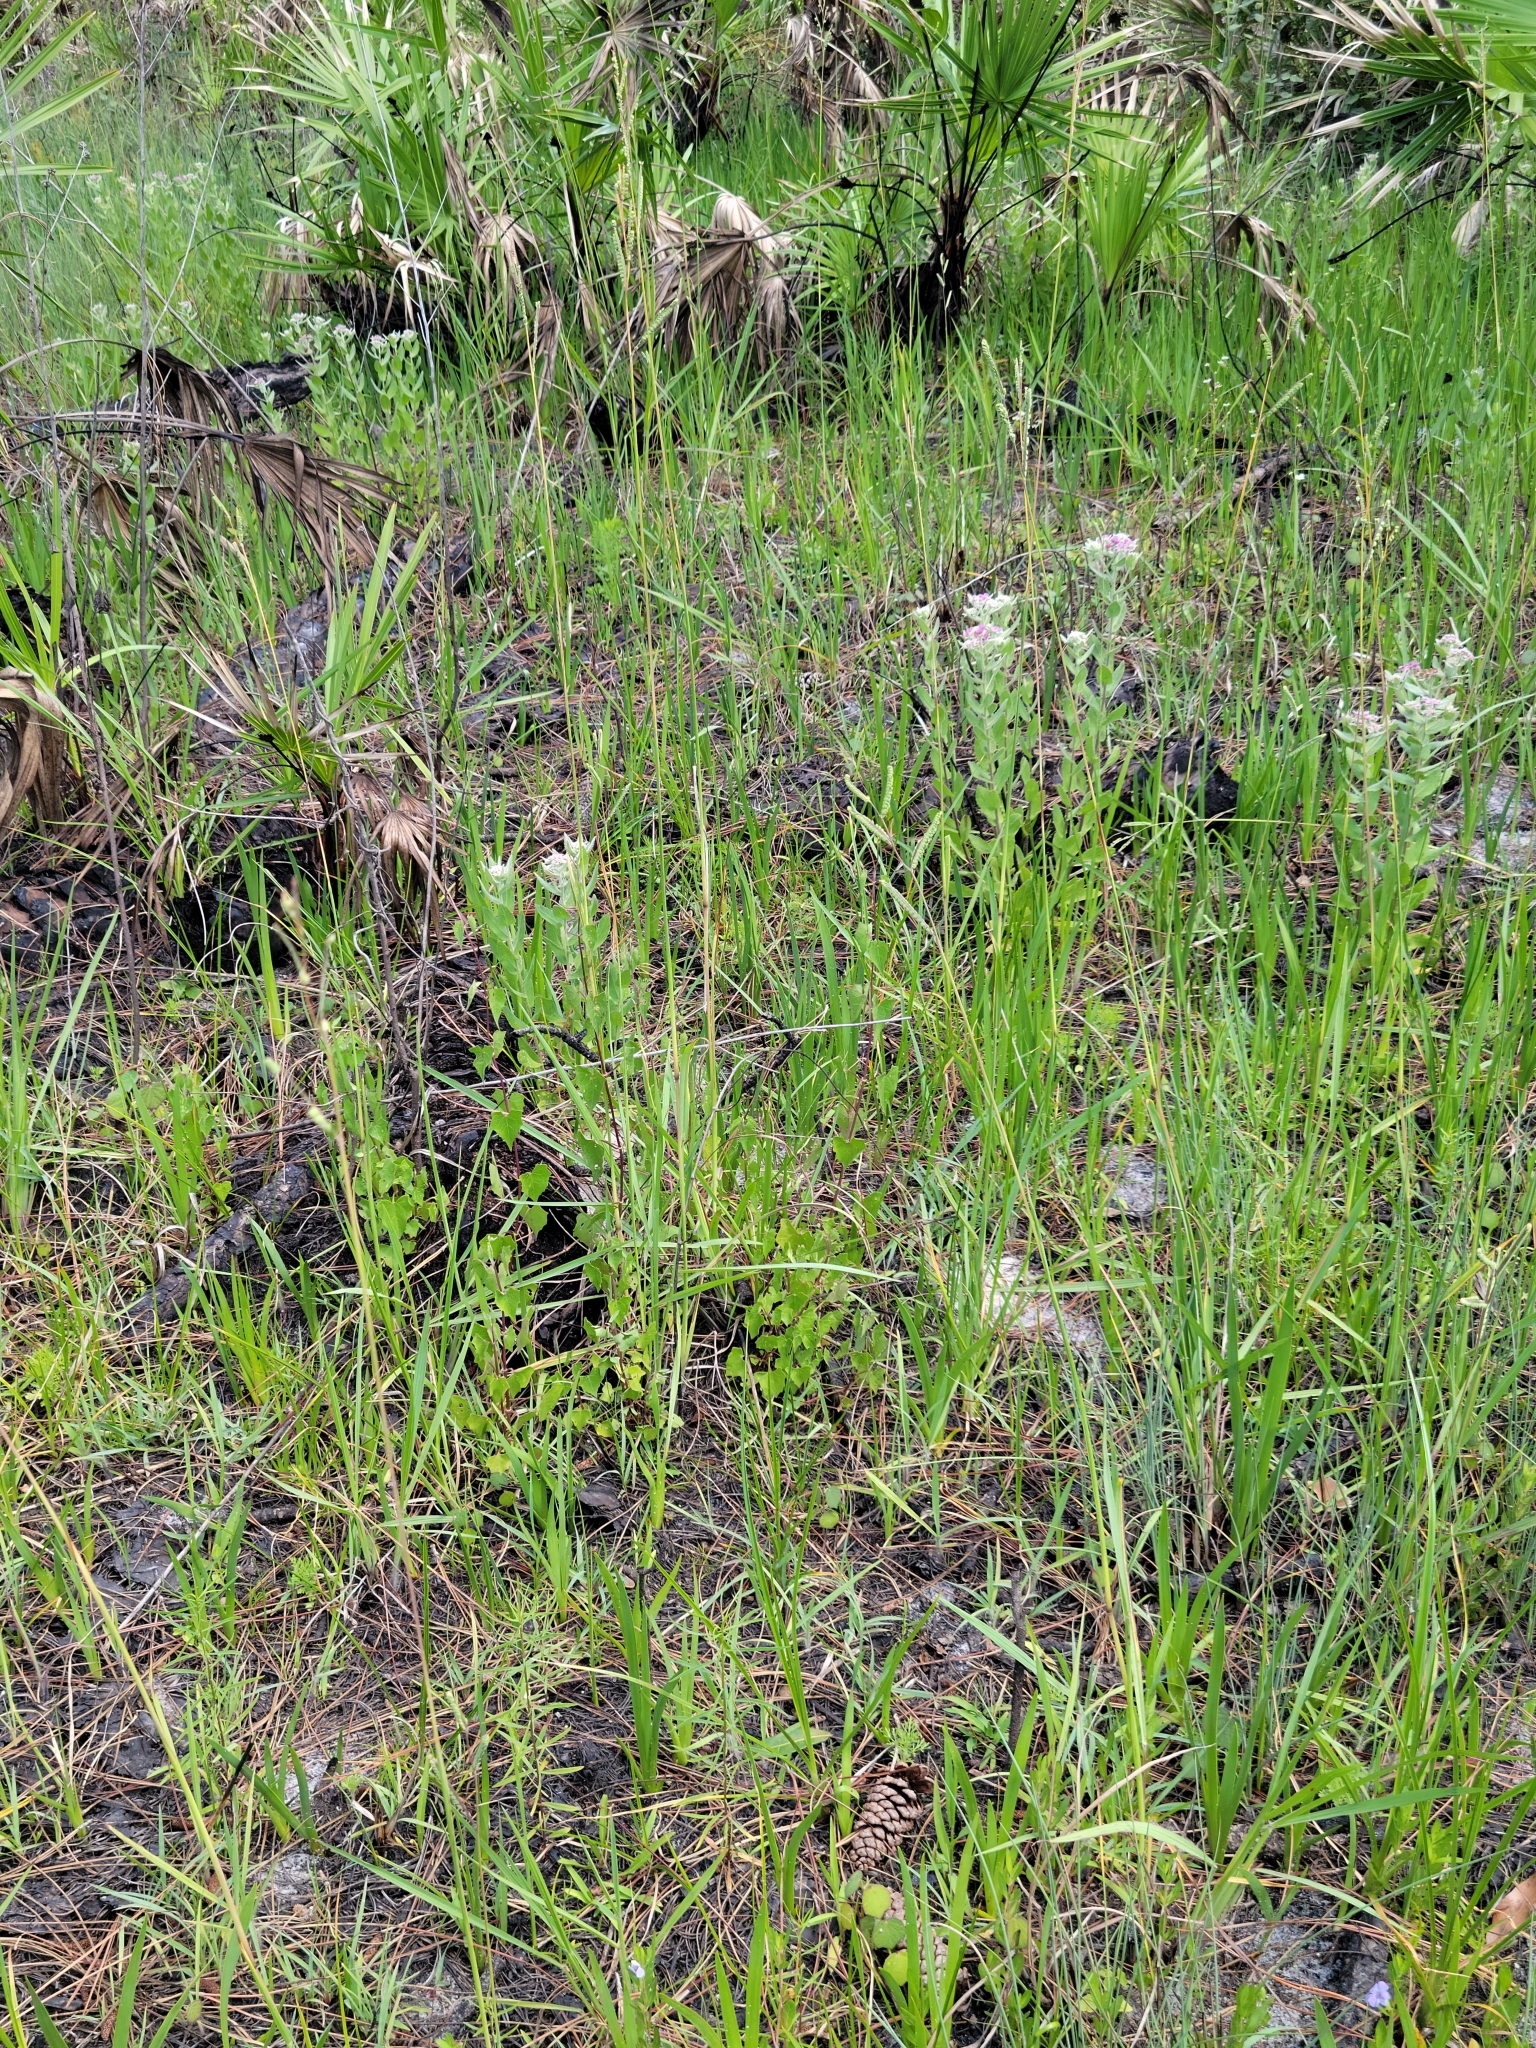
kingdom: Plantae
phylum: Tracheophyta
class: Liliopsida
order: Poales
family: Poaceae
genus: Paspalum
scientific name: Paspalum praecox
